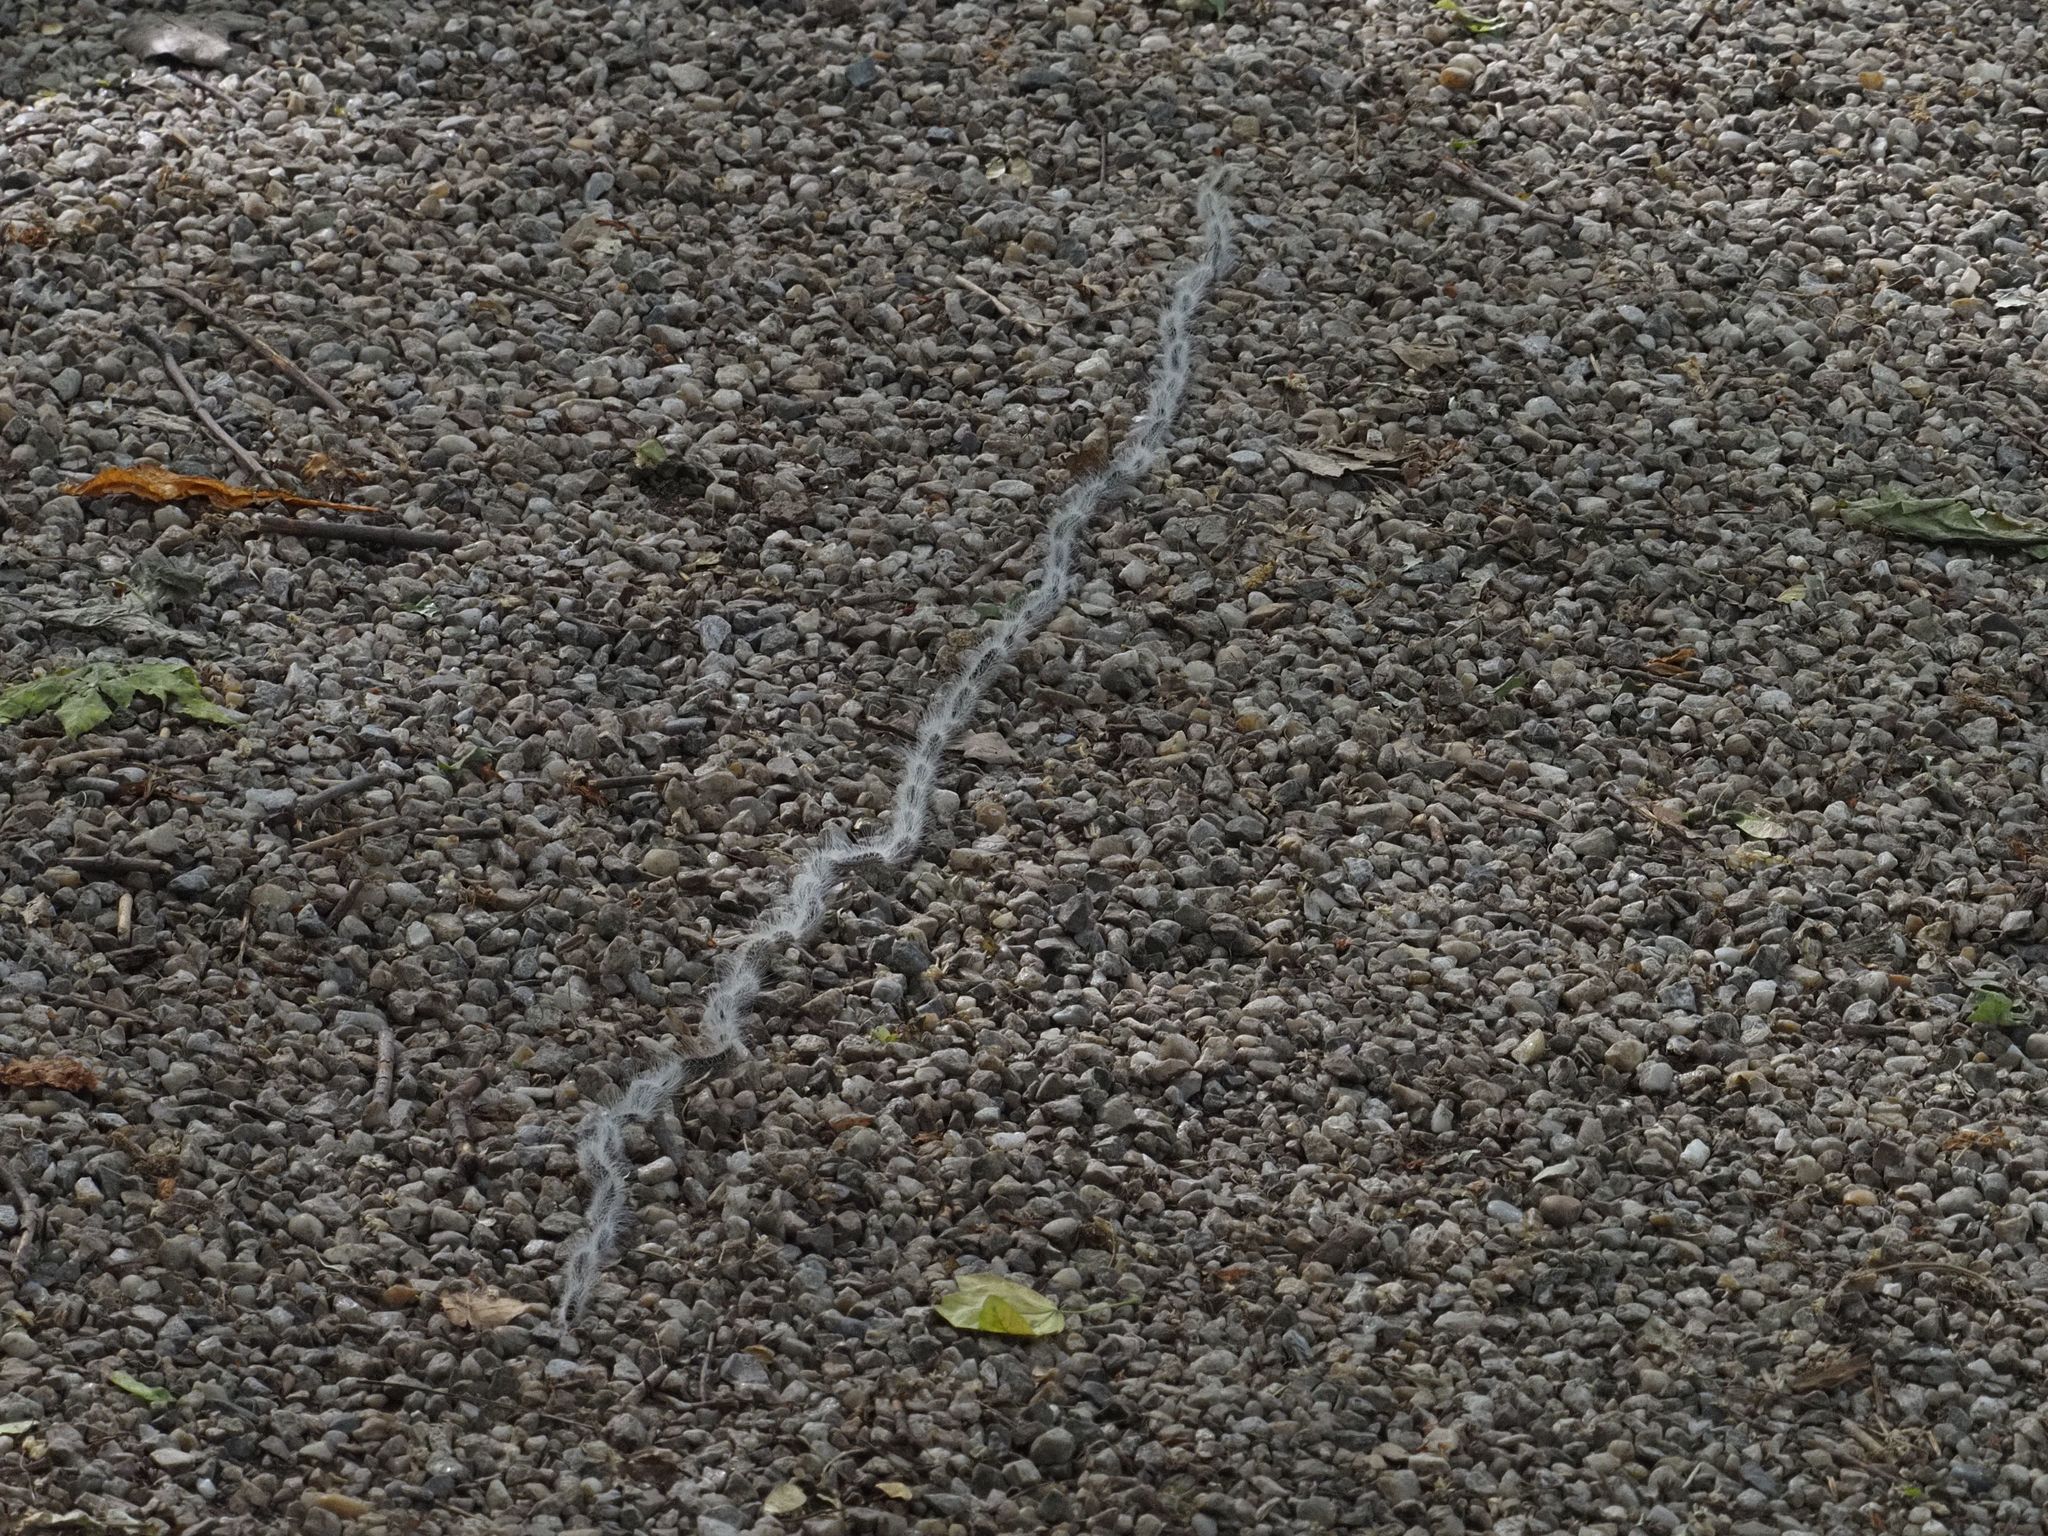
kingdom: Animalia
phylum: Arthropoda
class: Insecta
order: Lepidoptera
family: Notodontidae
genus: Thaumetopoea
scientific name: Thaumetopoea processionea
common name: Oak processionea
